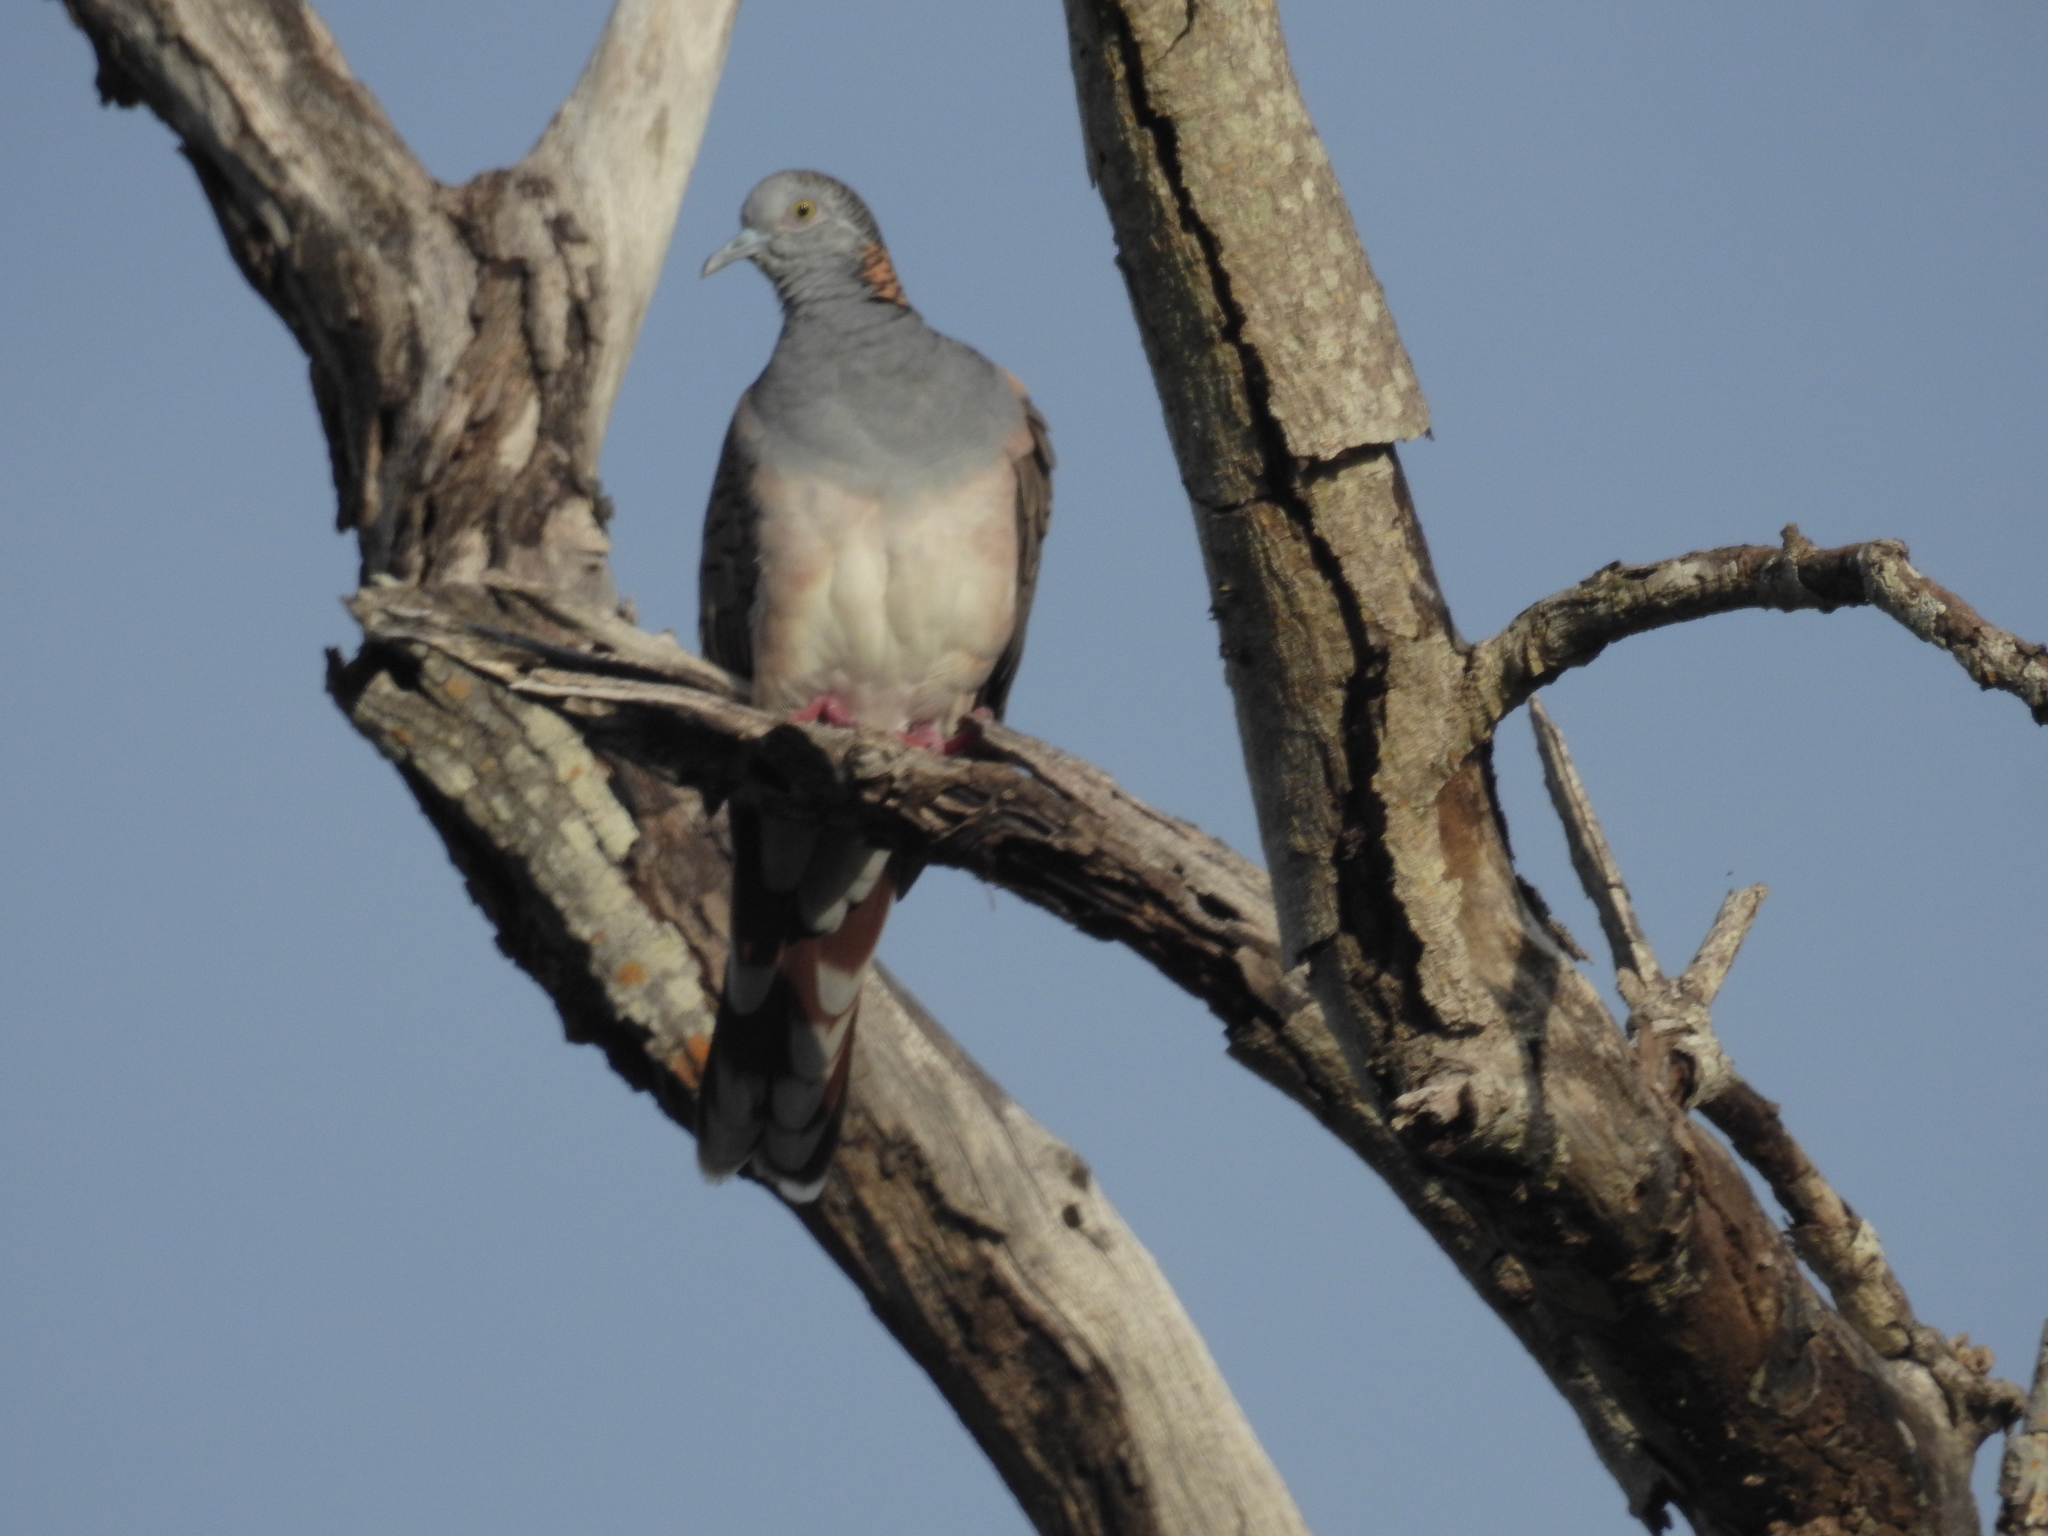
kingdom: Animalia
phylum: Chordata
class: Aves
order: Columbiformes
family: Columbidae
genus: Geopelia
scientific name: Geopelia humeralis
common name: Bar-shouldered dove
